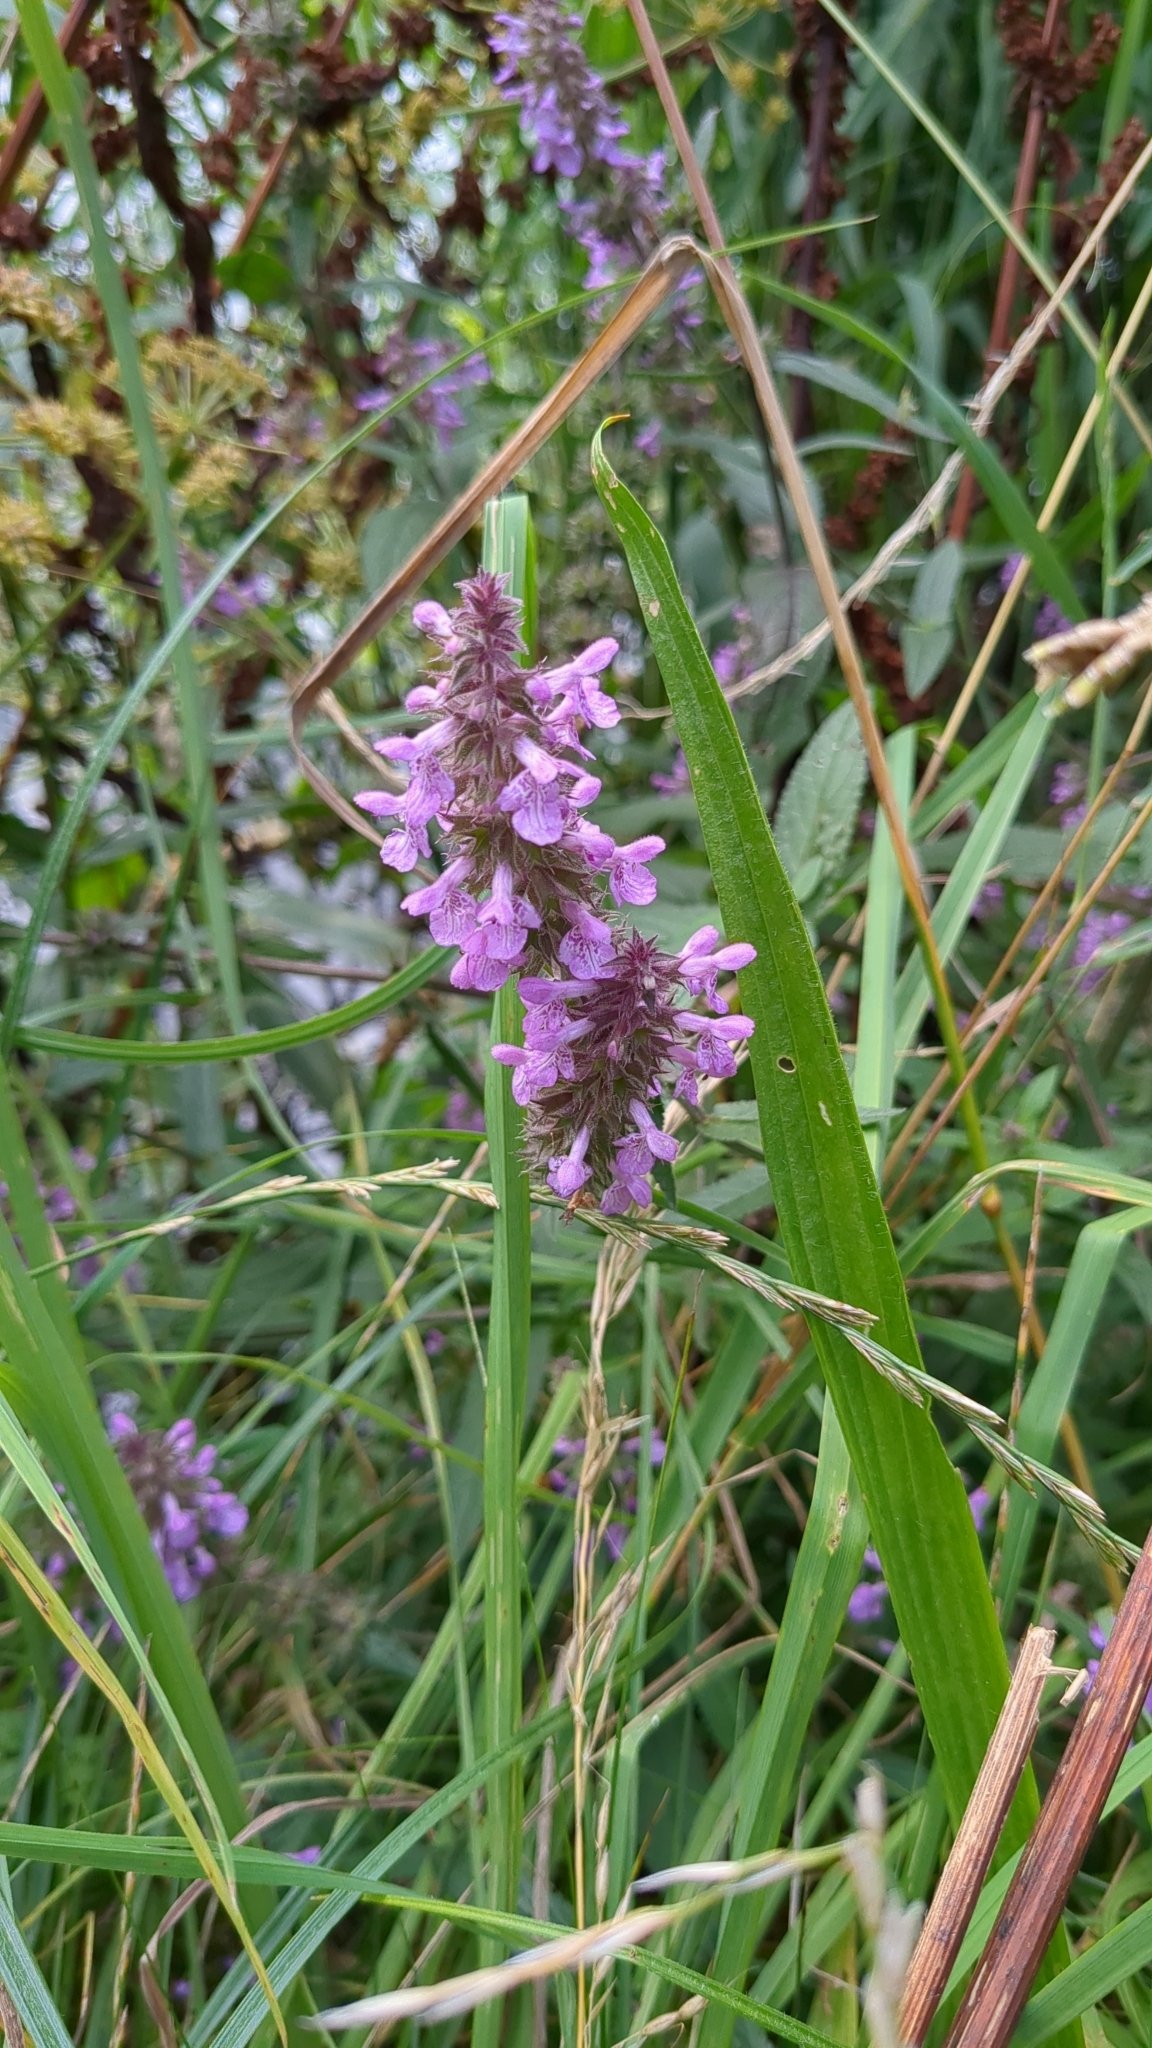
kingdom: Plantae
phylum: Tracheophyta
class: Magnoliopsida
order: Lamiales
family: Lamiaceae
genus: Stachys
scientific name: Stachys palustris
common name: Marsh woundwort
